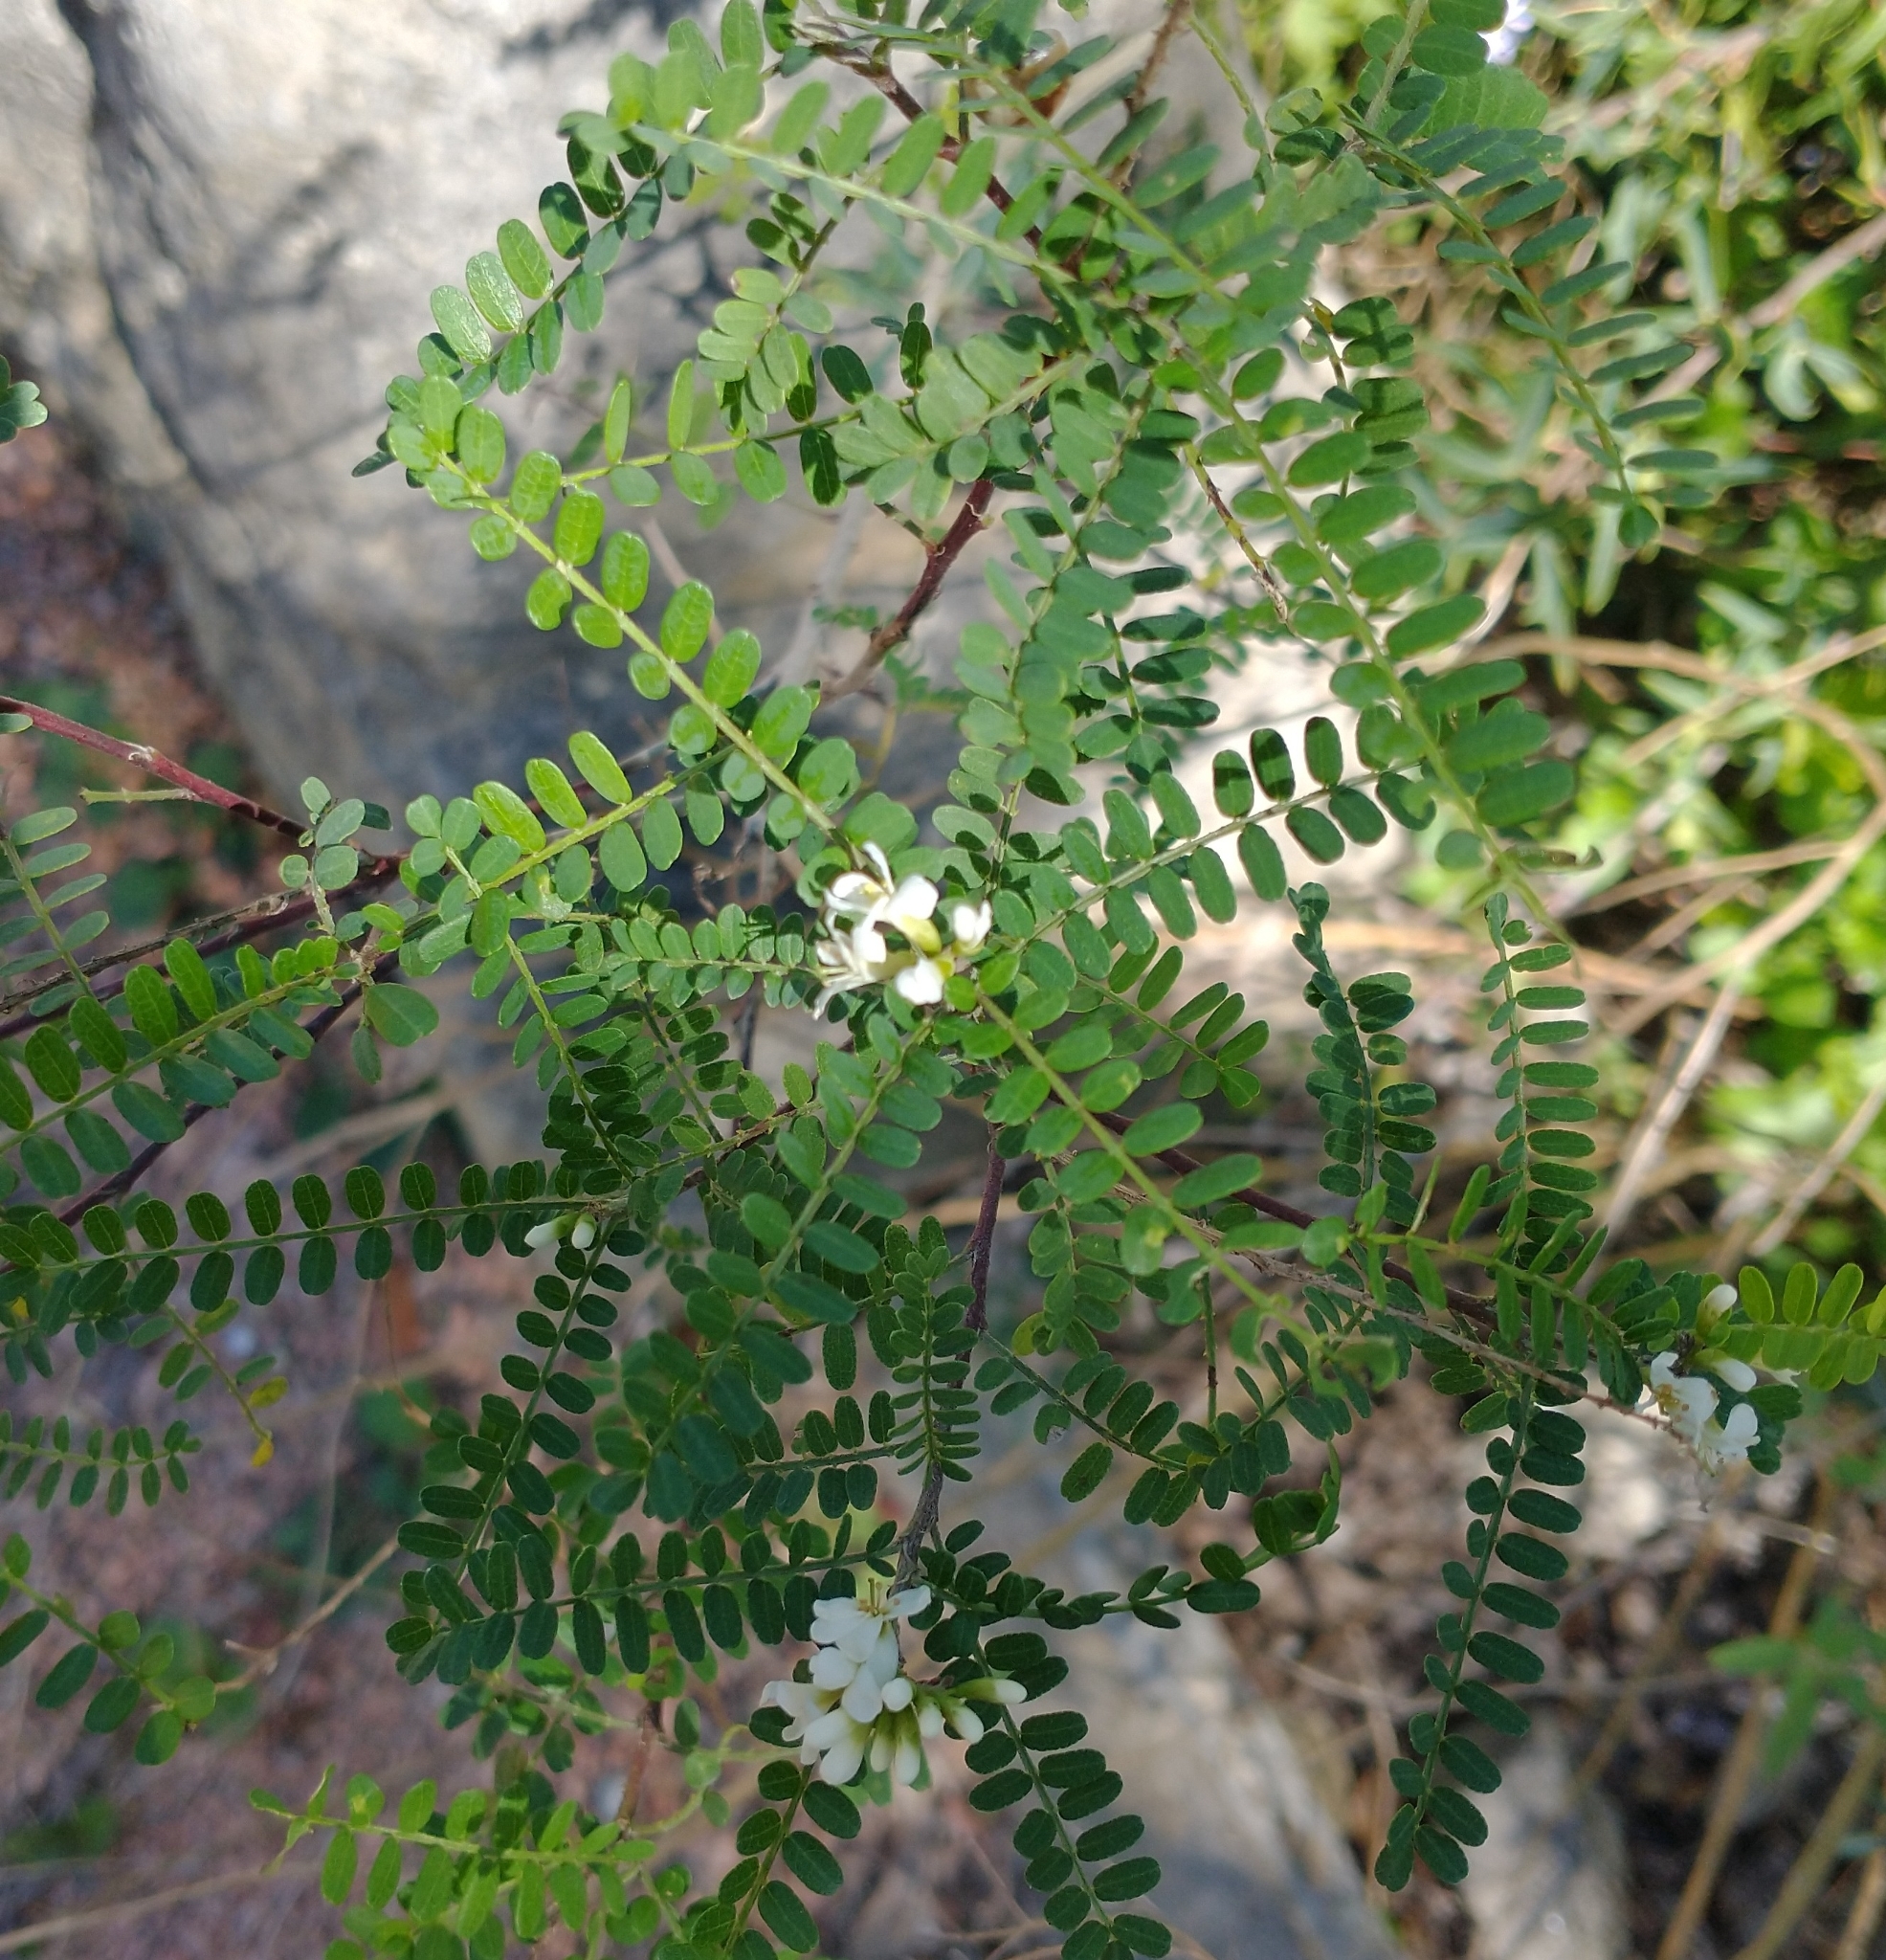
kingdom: Plantae
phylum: Tracheophyta
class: Magnoliopsida
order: Fabales
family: Fabaceae
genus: Eysenhardtia
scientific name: Eysenhardtia texana
